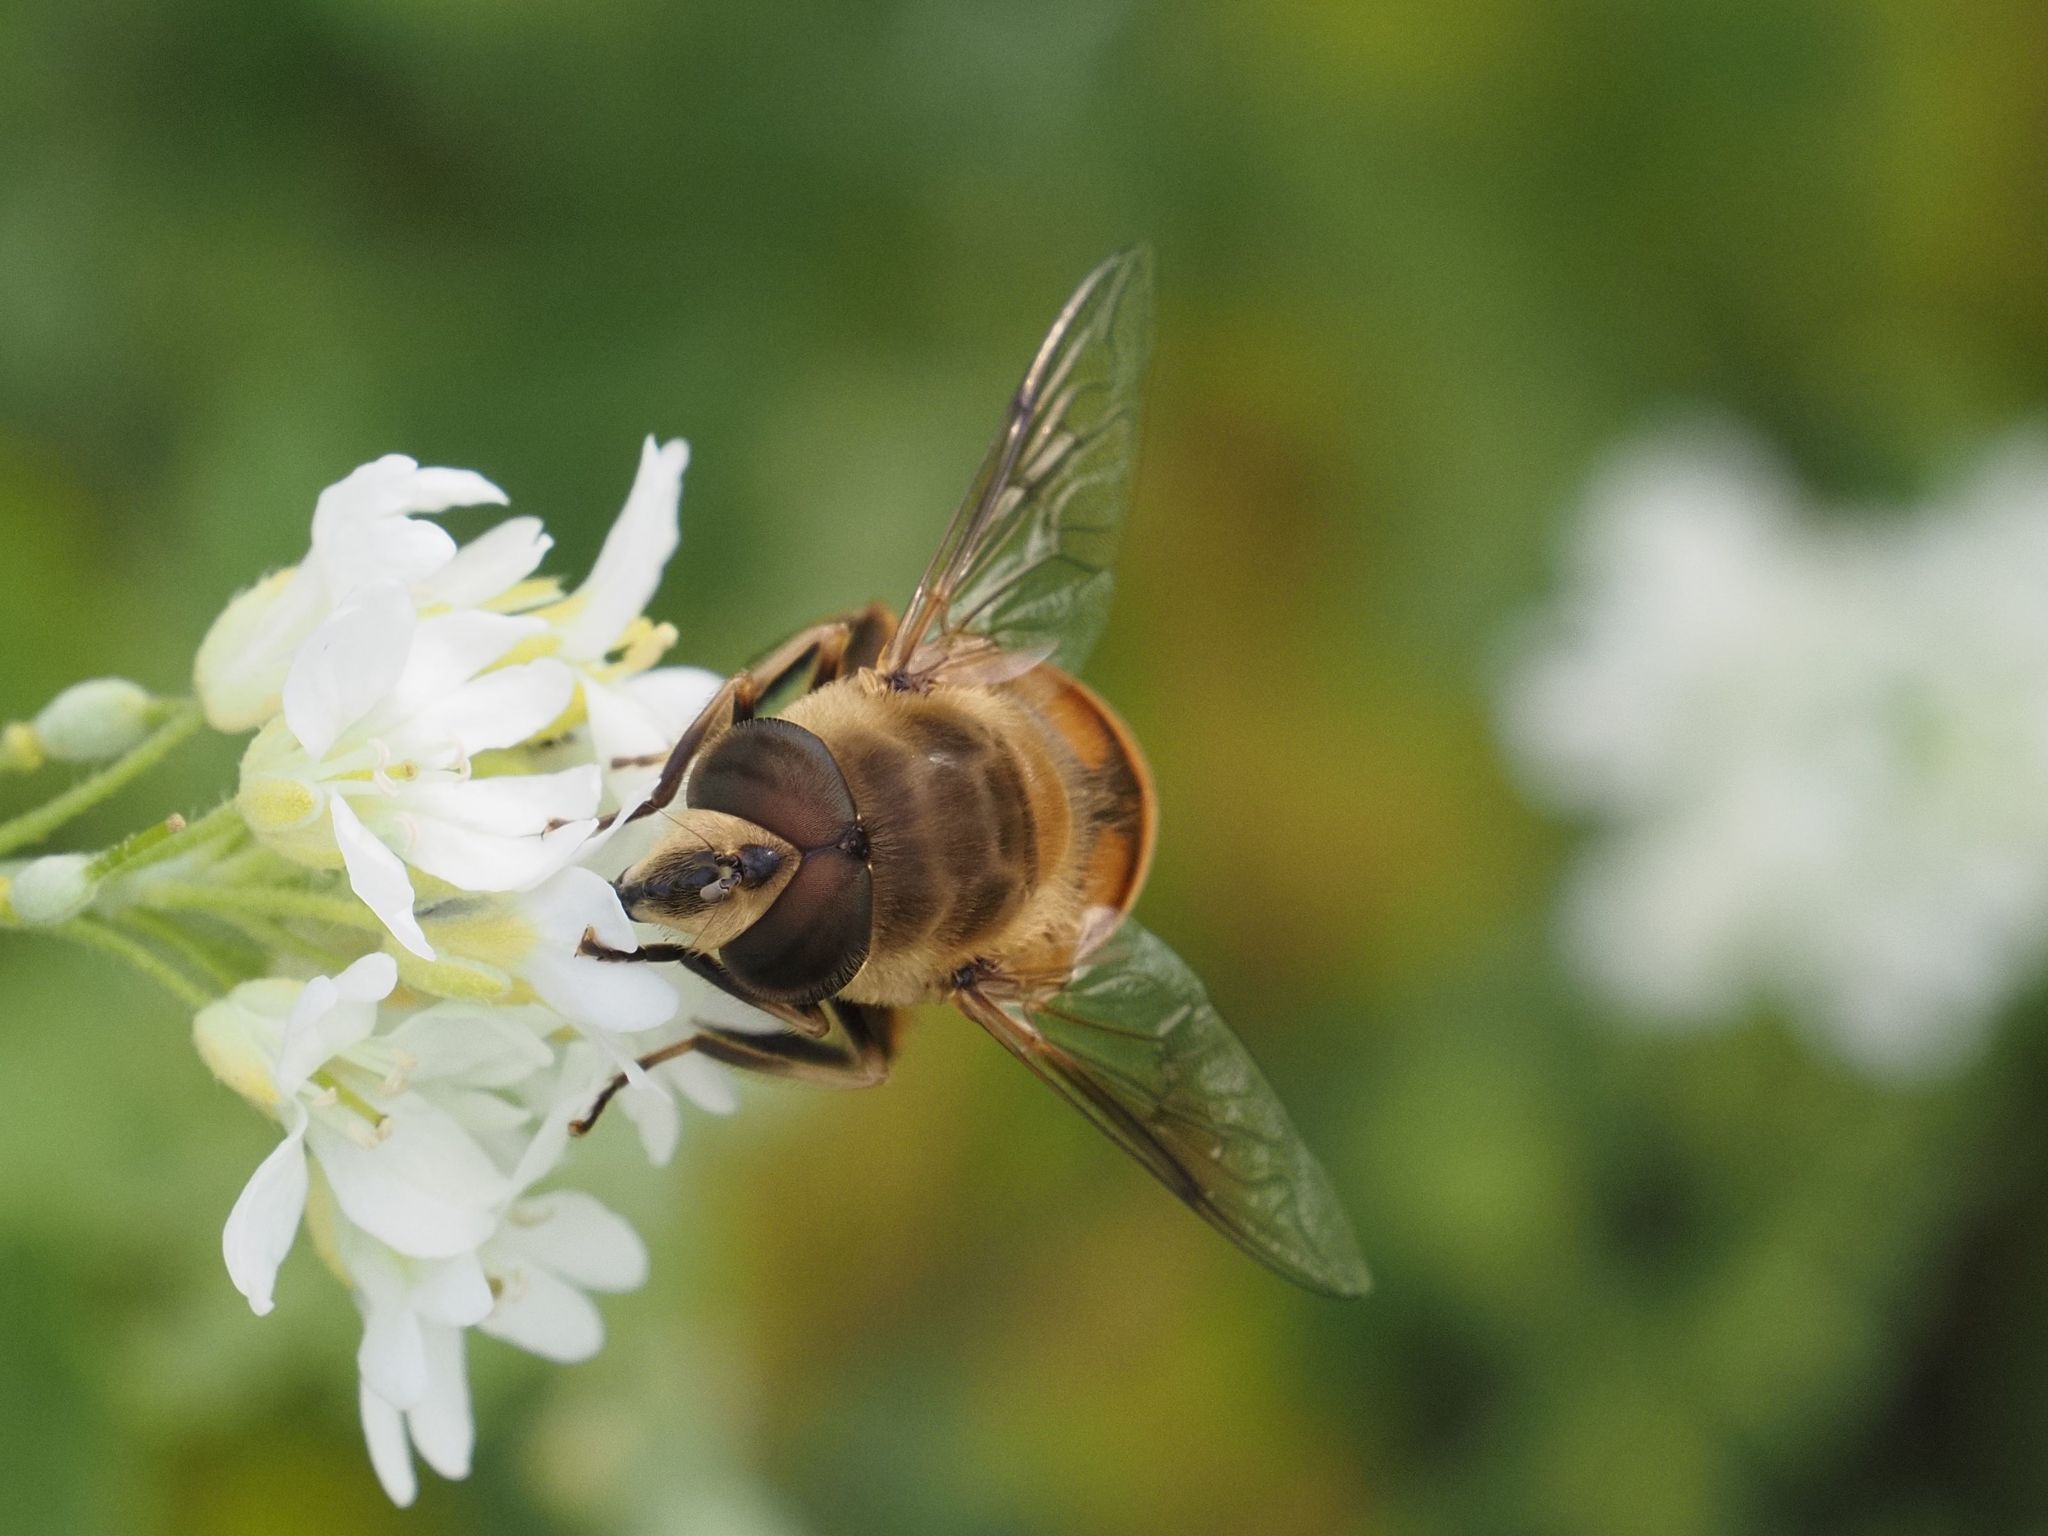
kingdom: Animalia
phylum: Arthropoda
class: Insecta
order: Diptera
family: Syrphidae
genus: Eristalis
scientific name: Eristalis tenax
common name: Drone fly
